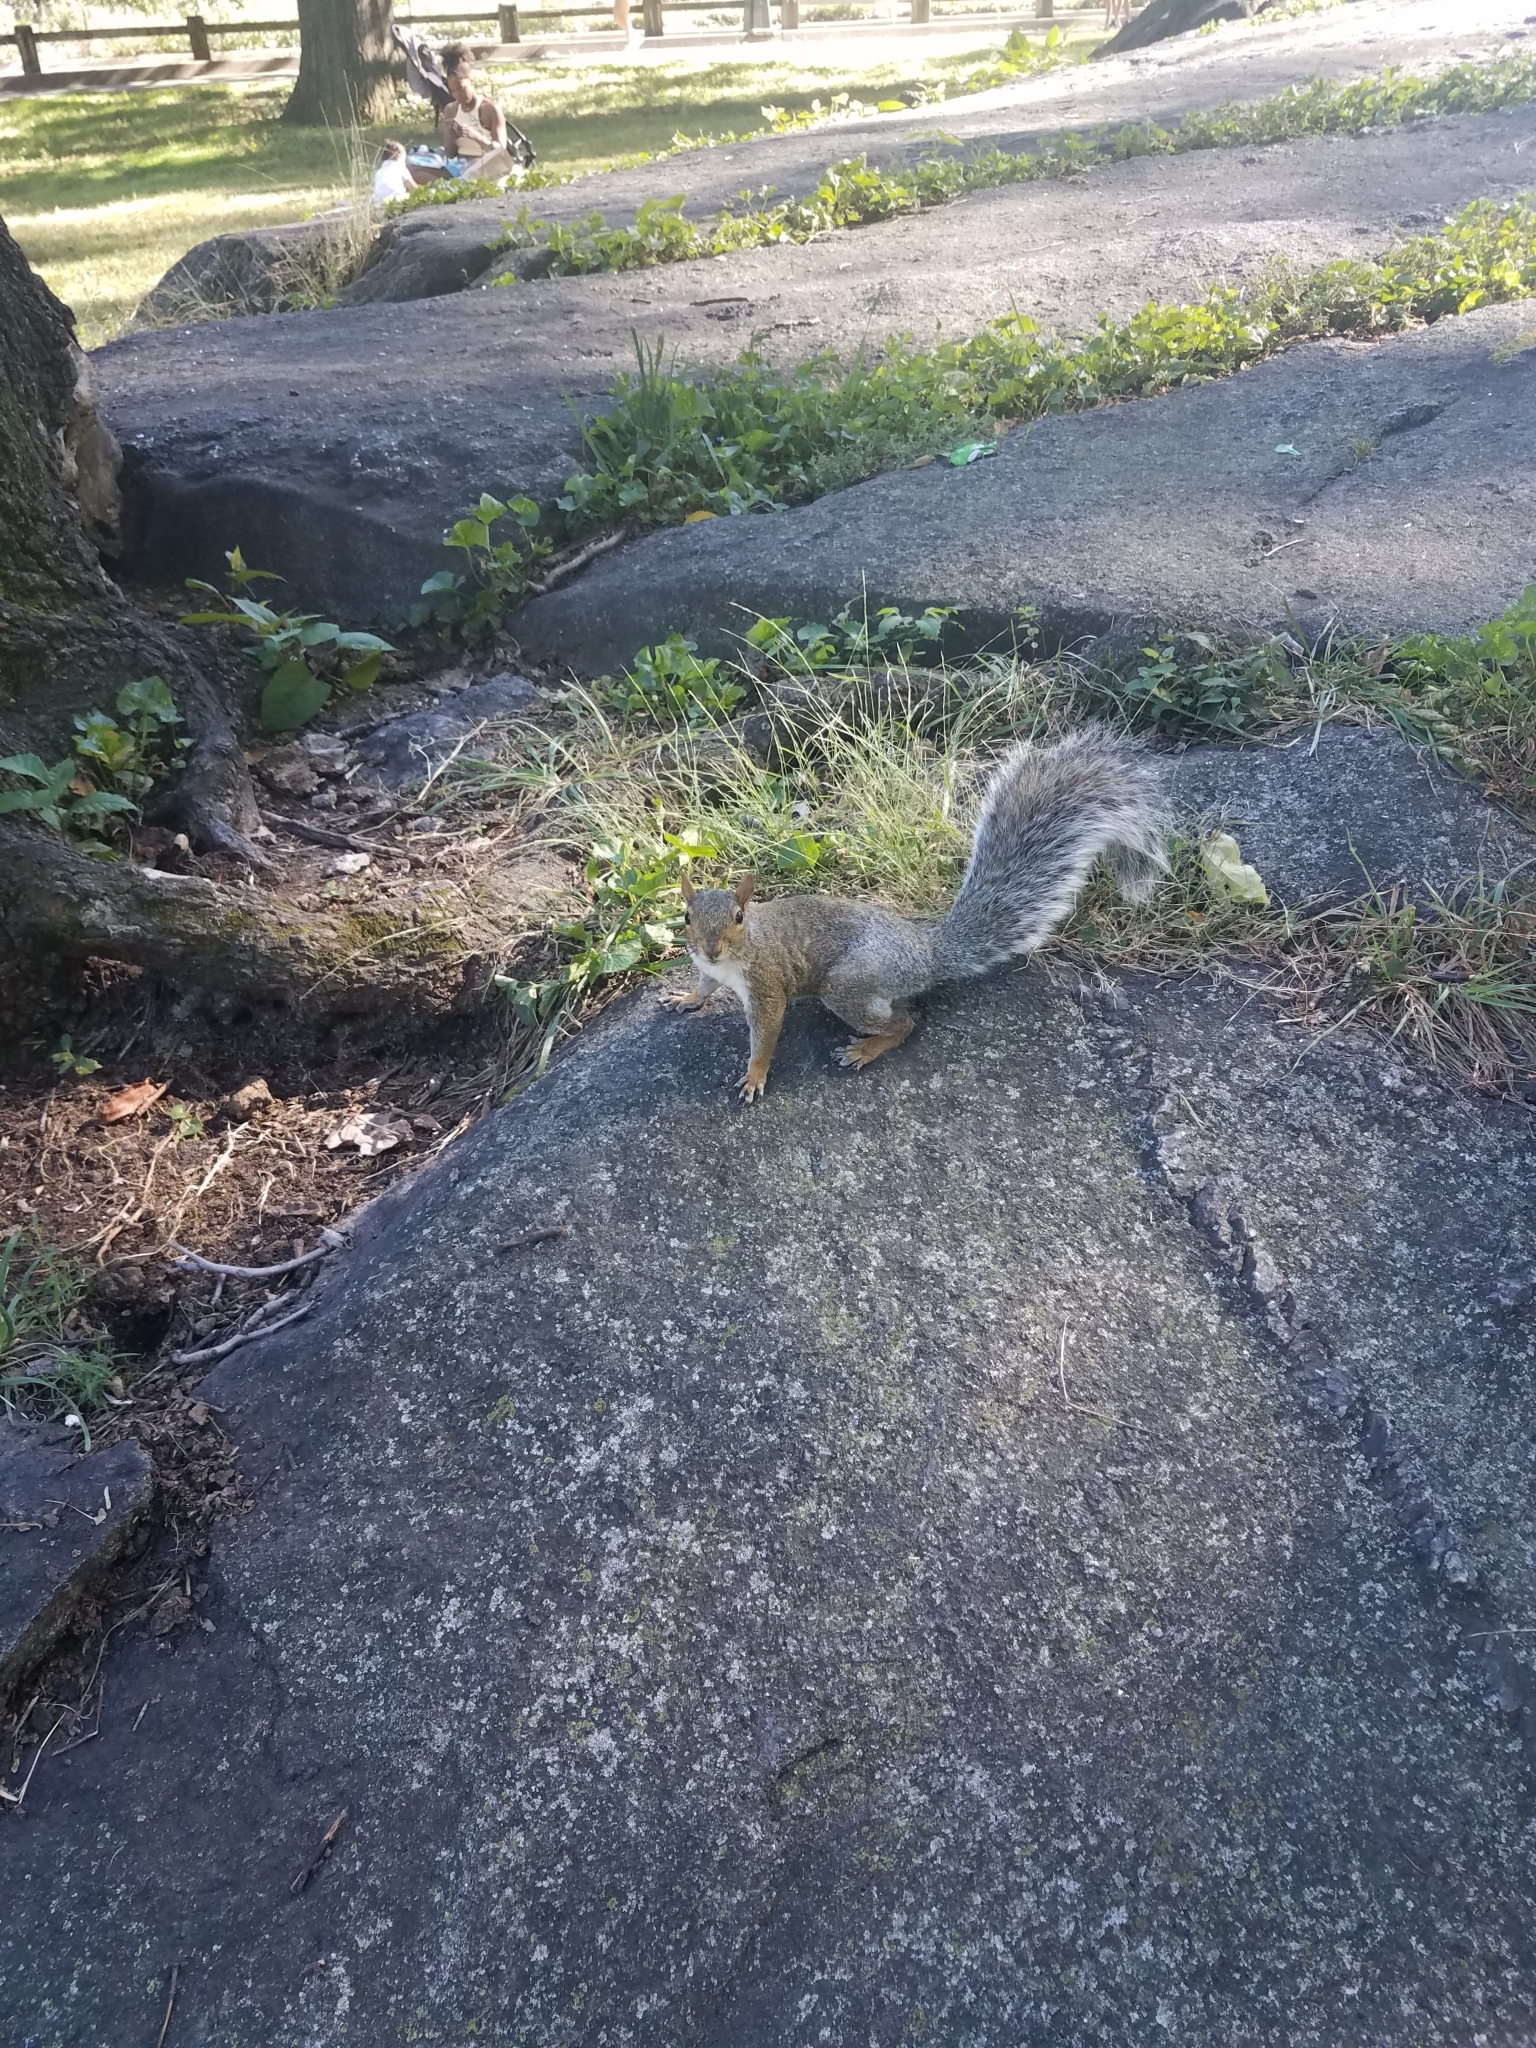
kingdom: Animalia
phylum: Chordata
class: Mammalia
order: Rodentia
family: Sciuridae
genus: Sciurus
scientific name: Sciurus carolinensis
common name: Eastern gray squirrel
